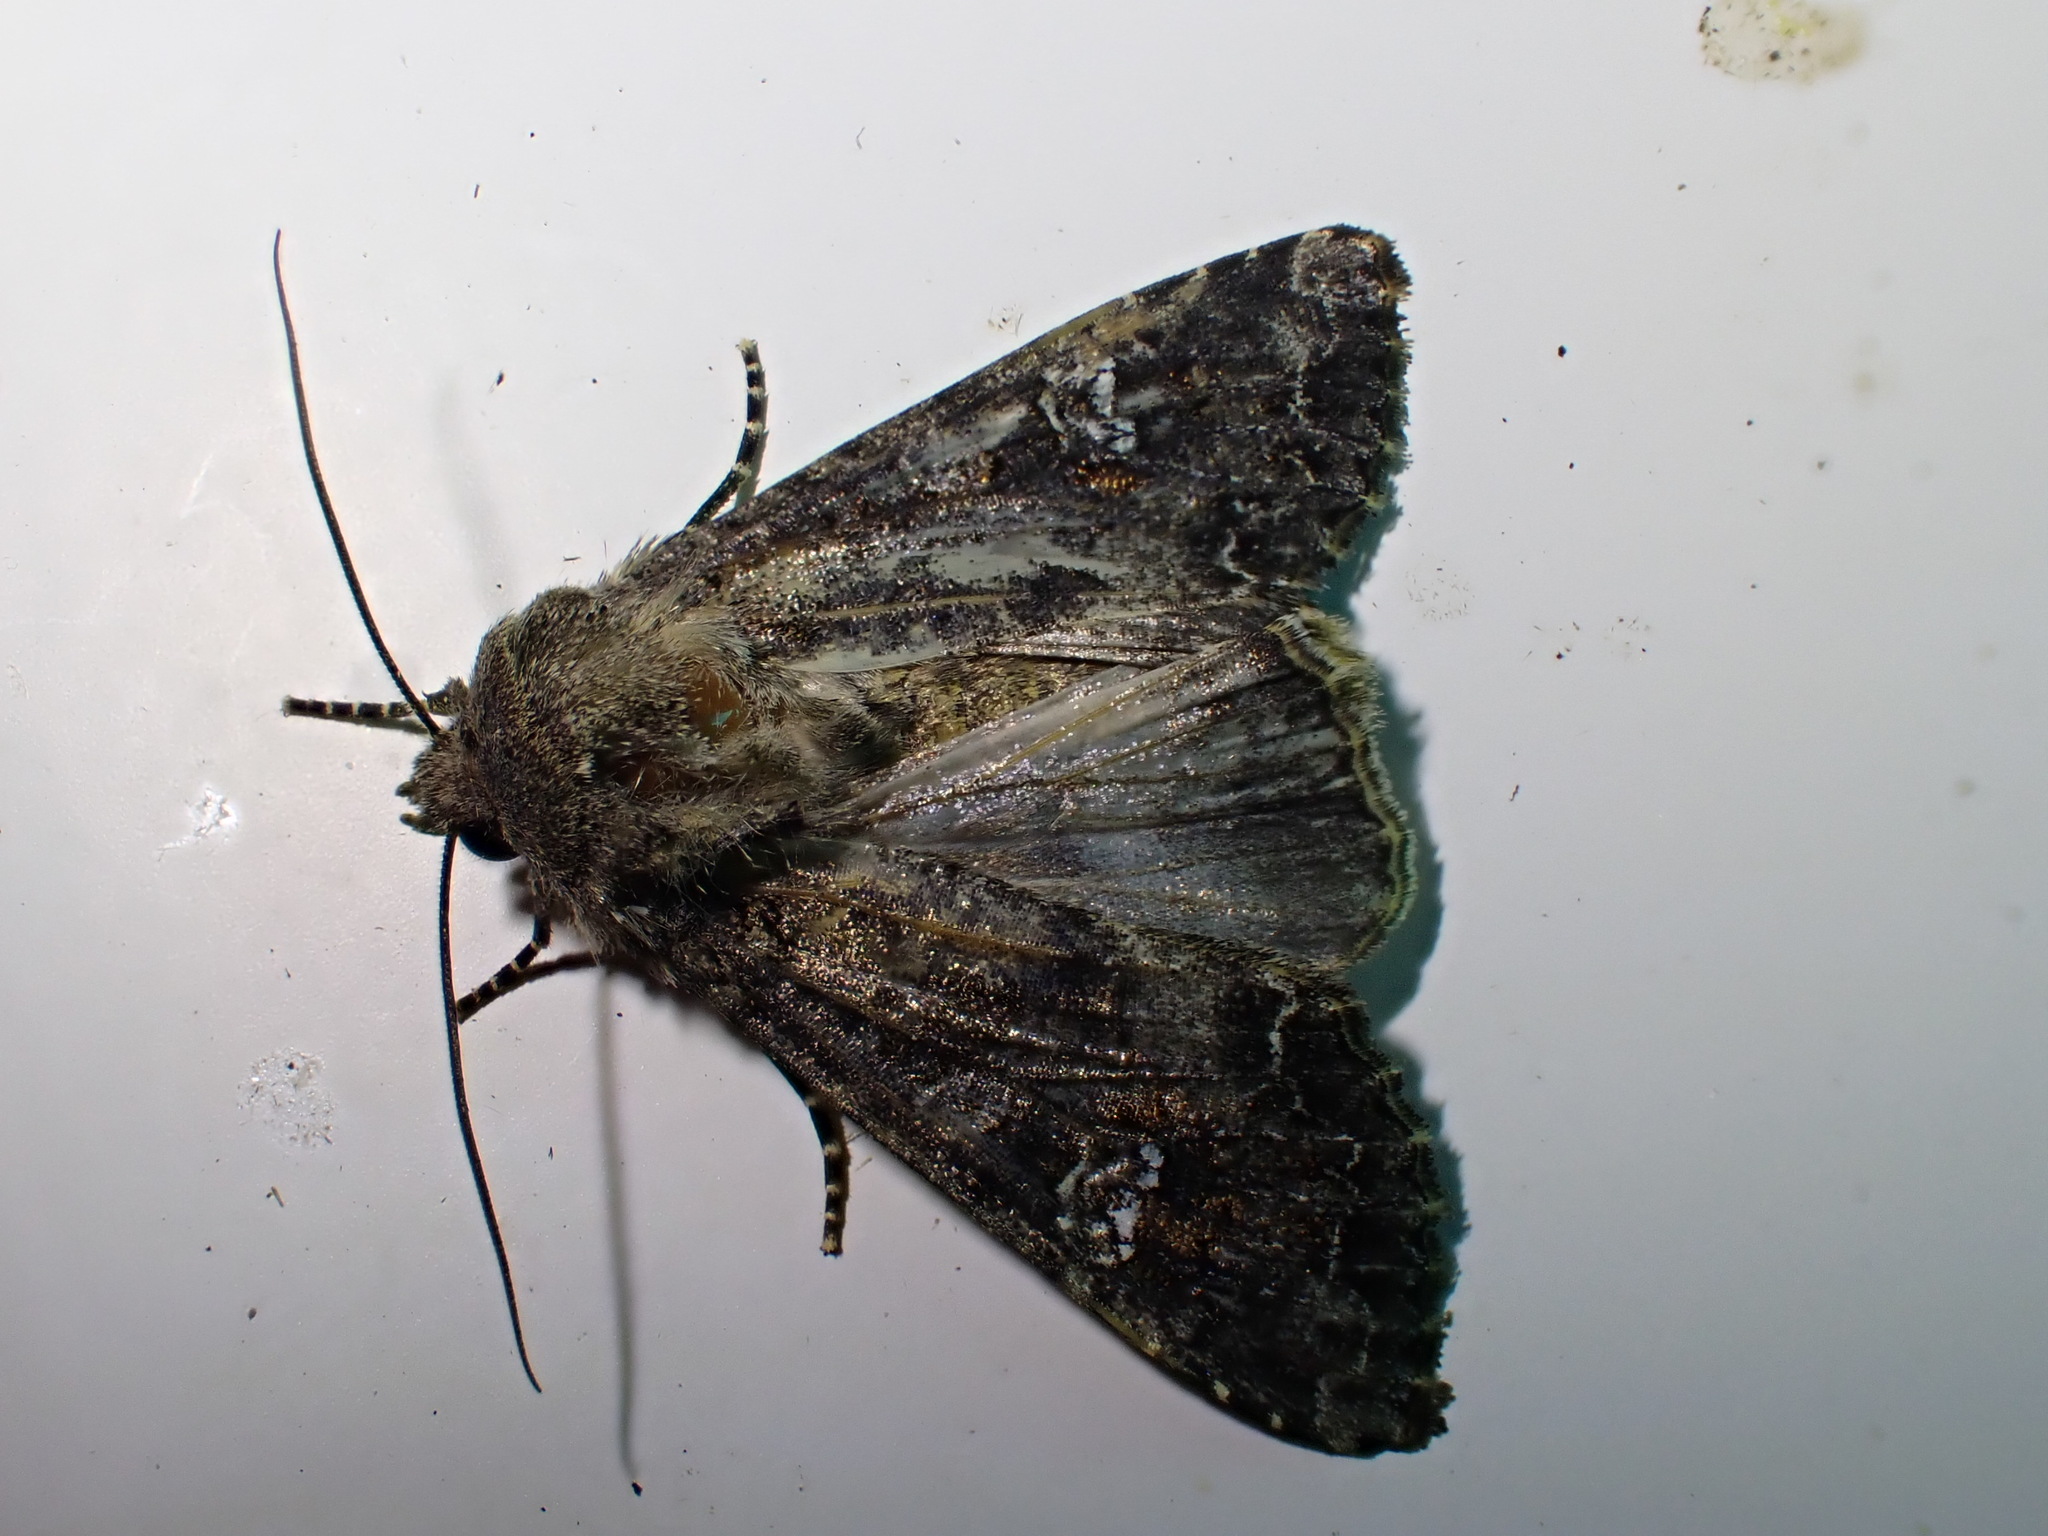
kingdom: Animalia
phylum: Arthropoda
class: Insecta
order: Lepidoptera
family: Noctuidae
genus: Mamestra
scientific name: Mamestra brassicae
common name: Cabbage moth
